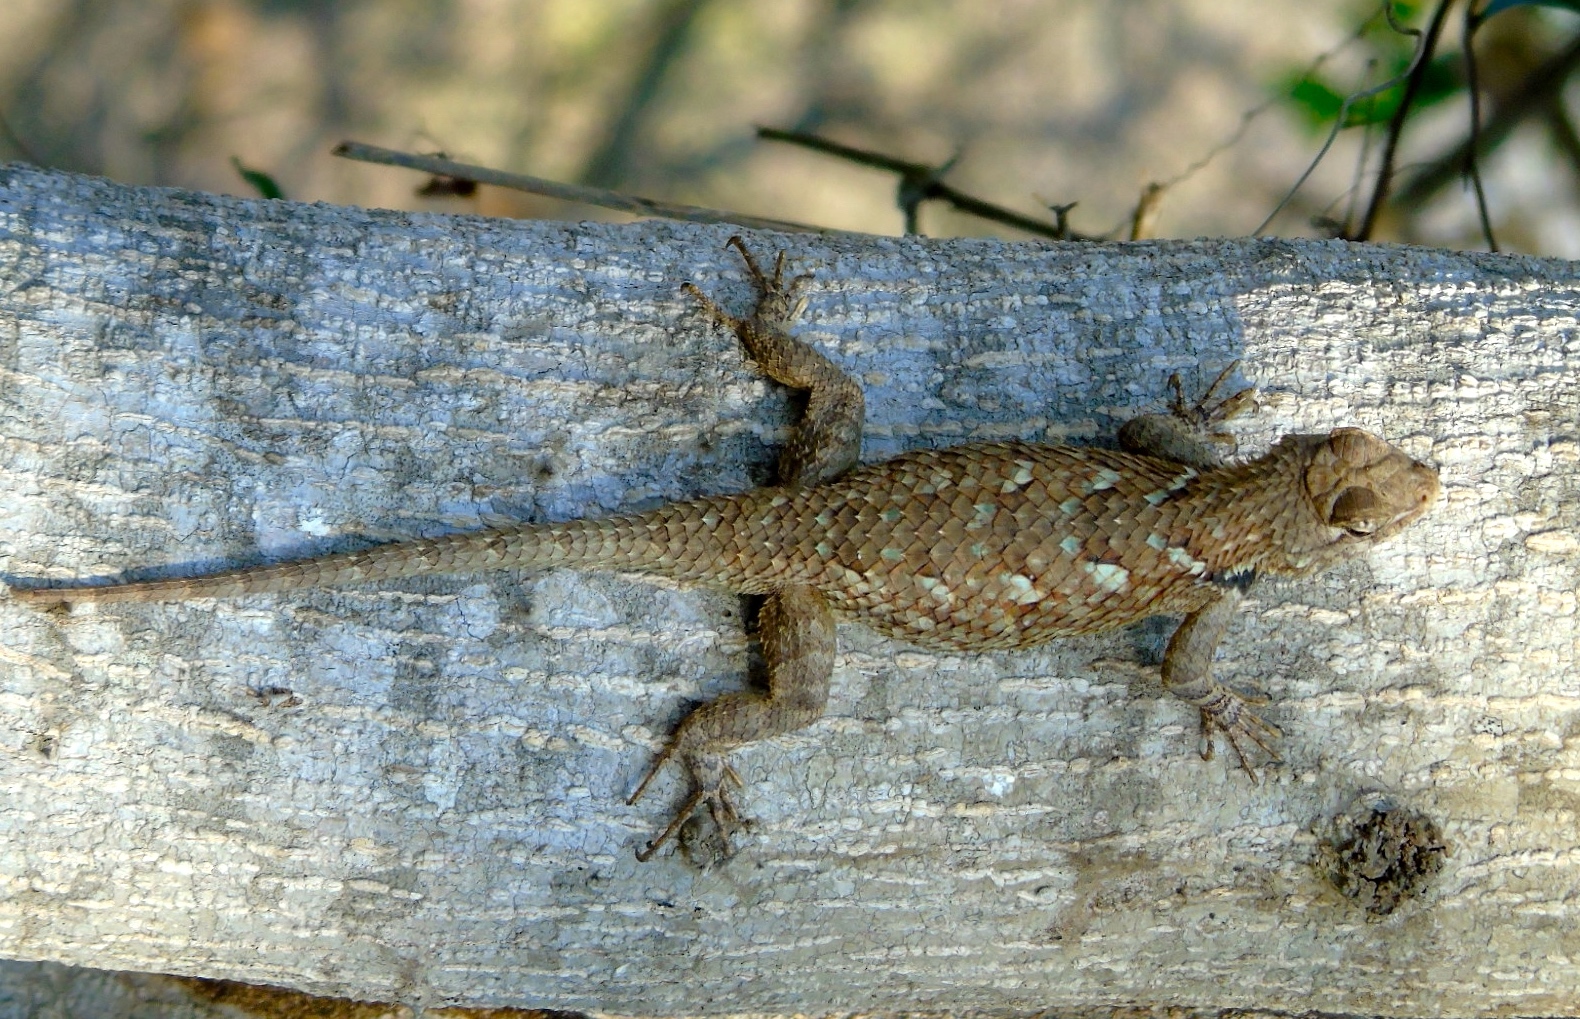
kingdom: Animalia
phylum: Chordata
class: Squamata
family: Phrynosomatidae
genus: Sceloporus
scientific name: Sceloporus clarkii
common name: Clark's spiny lizard
